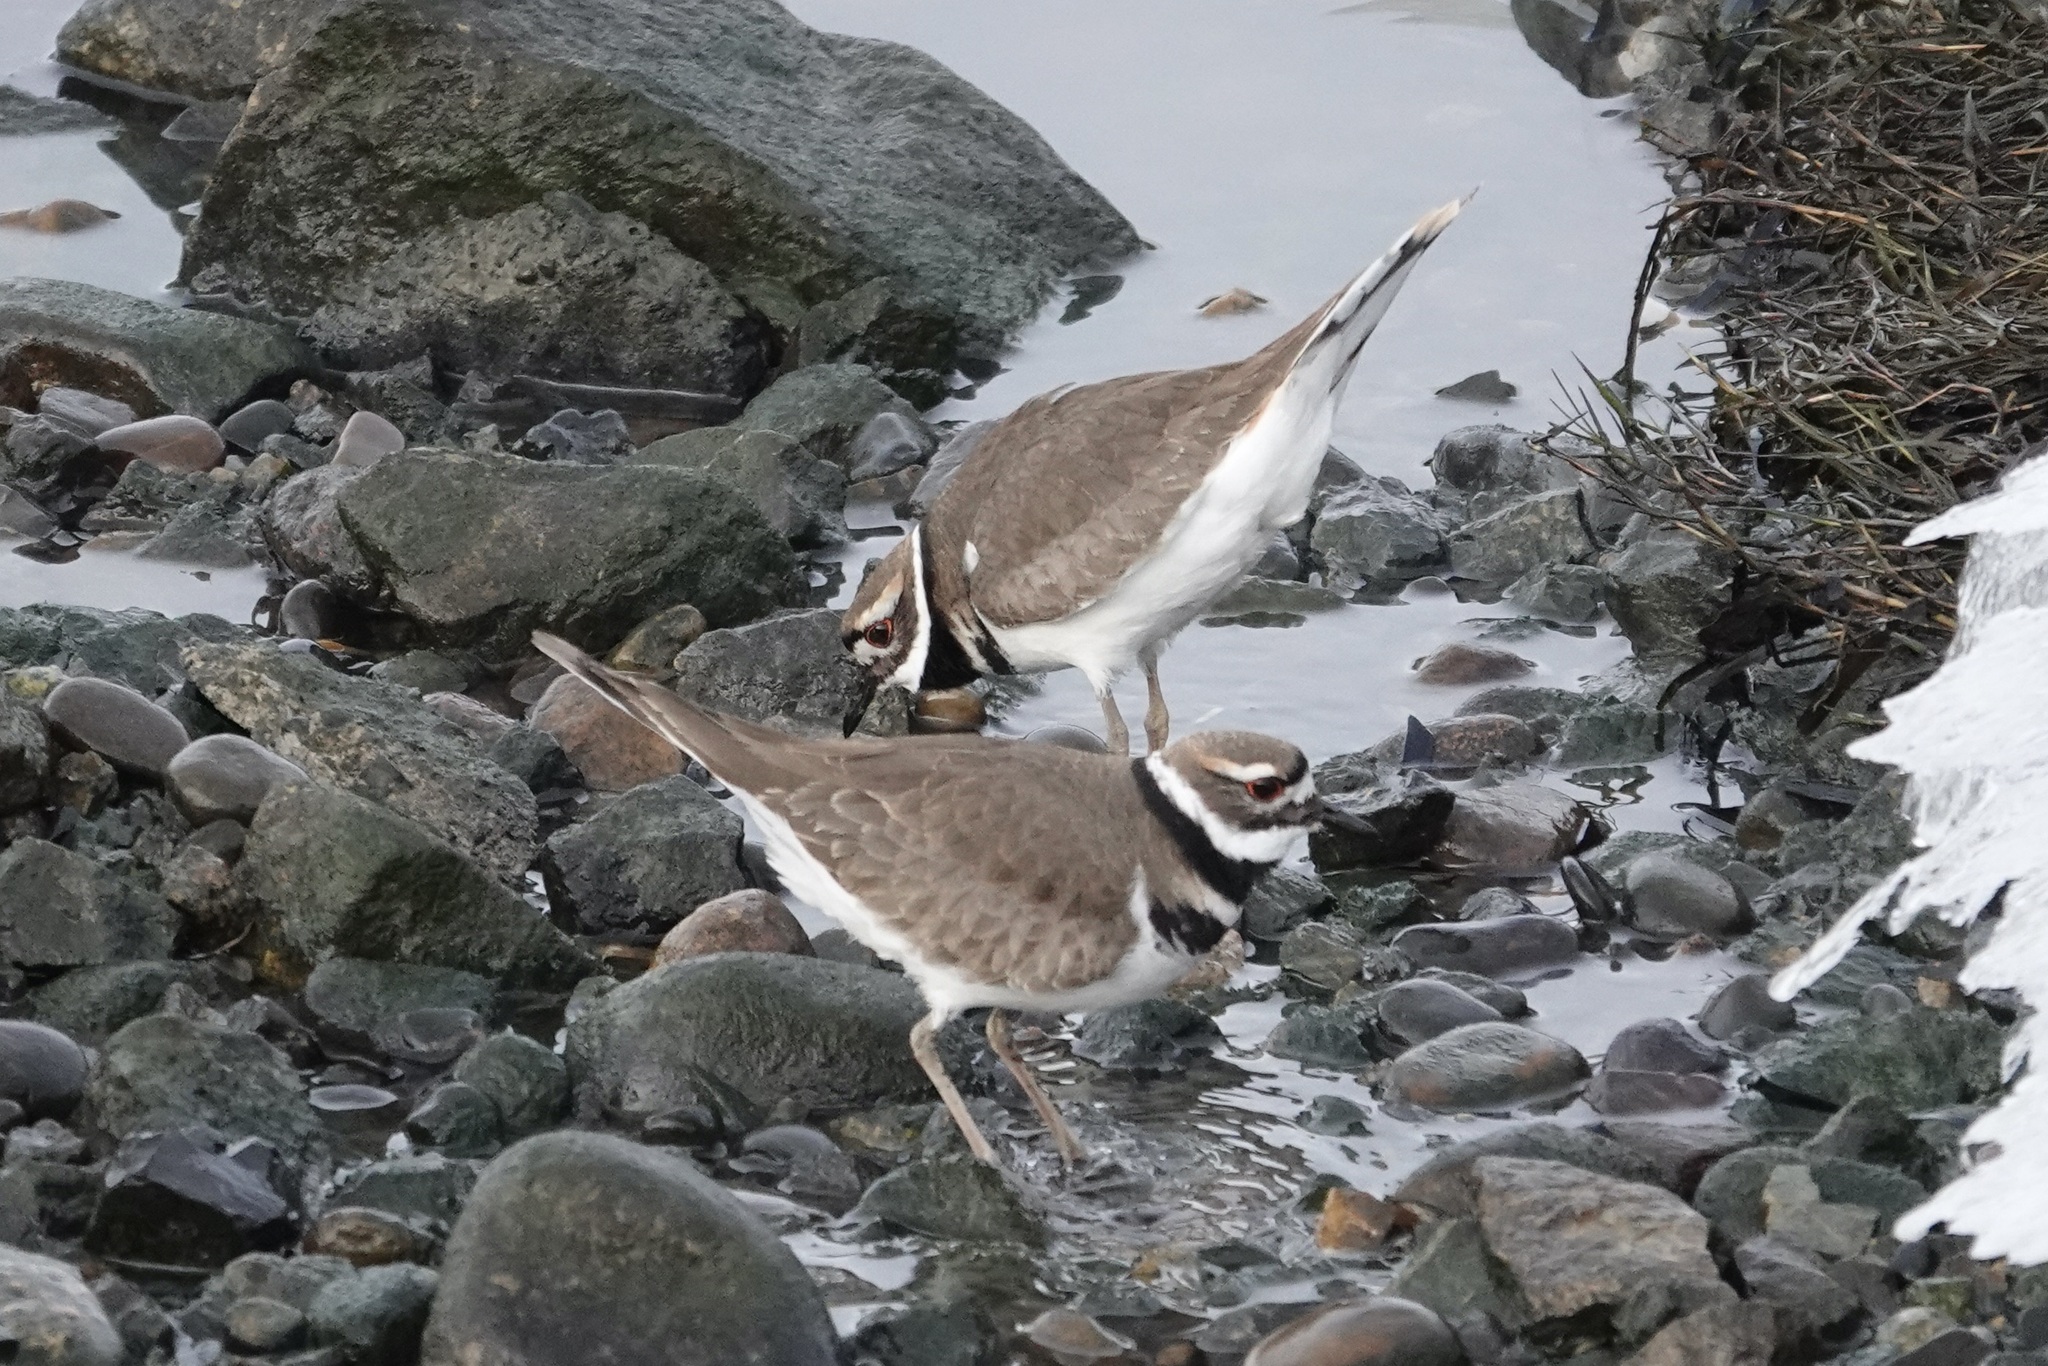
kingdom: Animalia
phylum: Chordata
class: Aves
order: Charadriiformes
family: Charadriidae
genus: Charadrius
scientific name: Charadrius vociferus
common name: Killdeer
